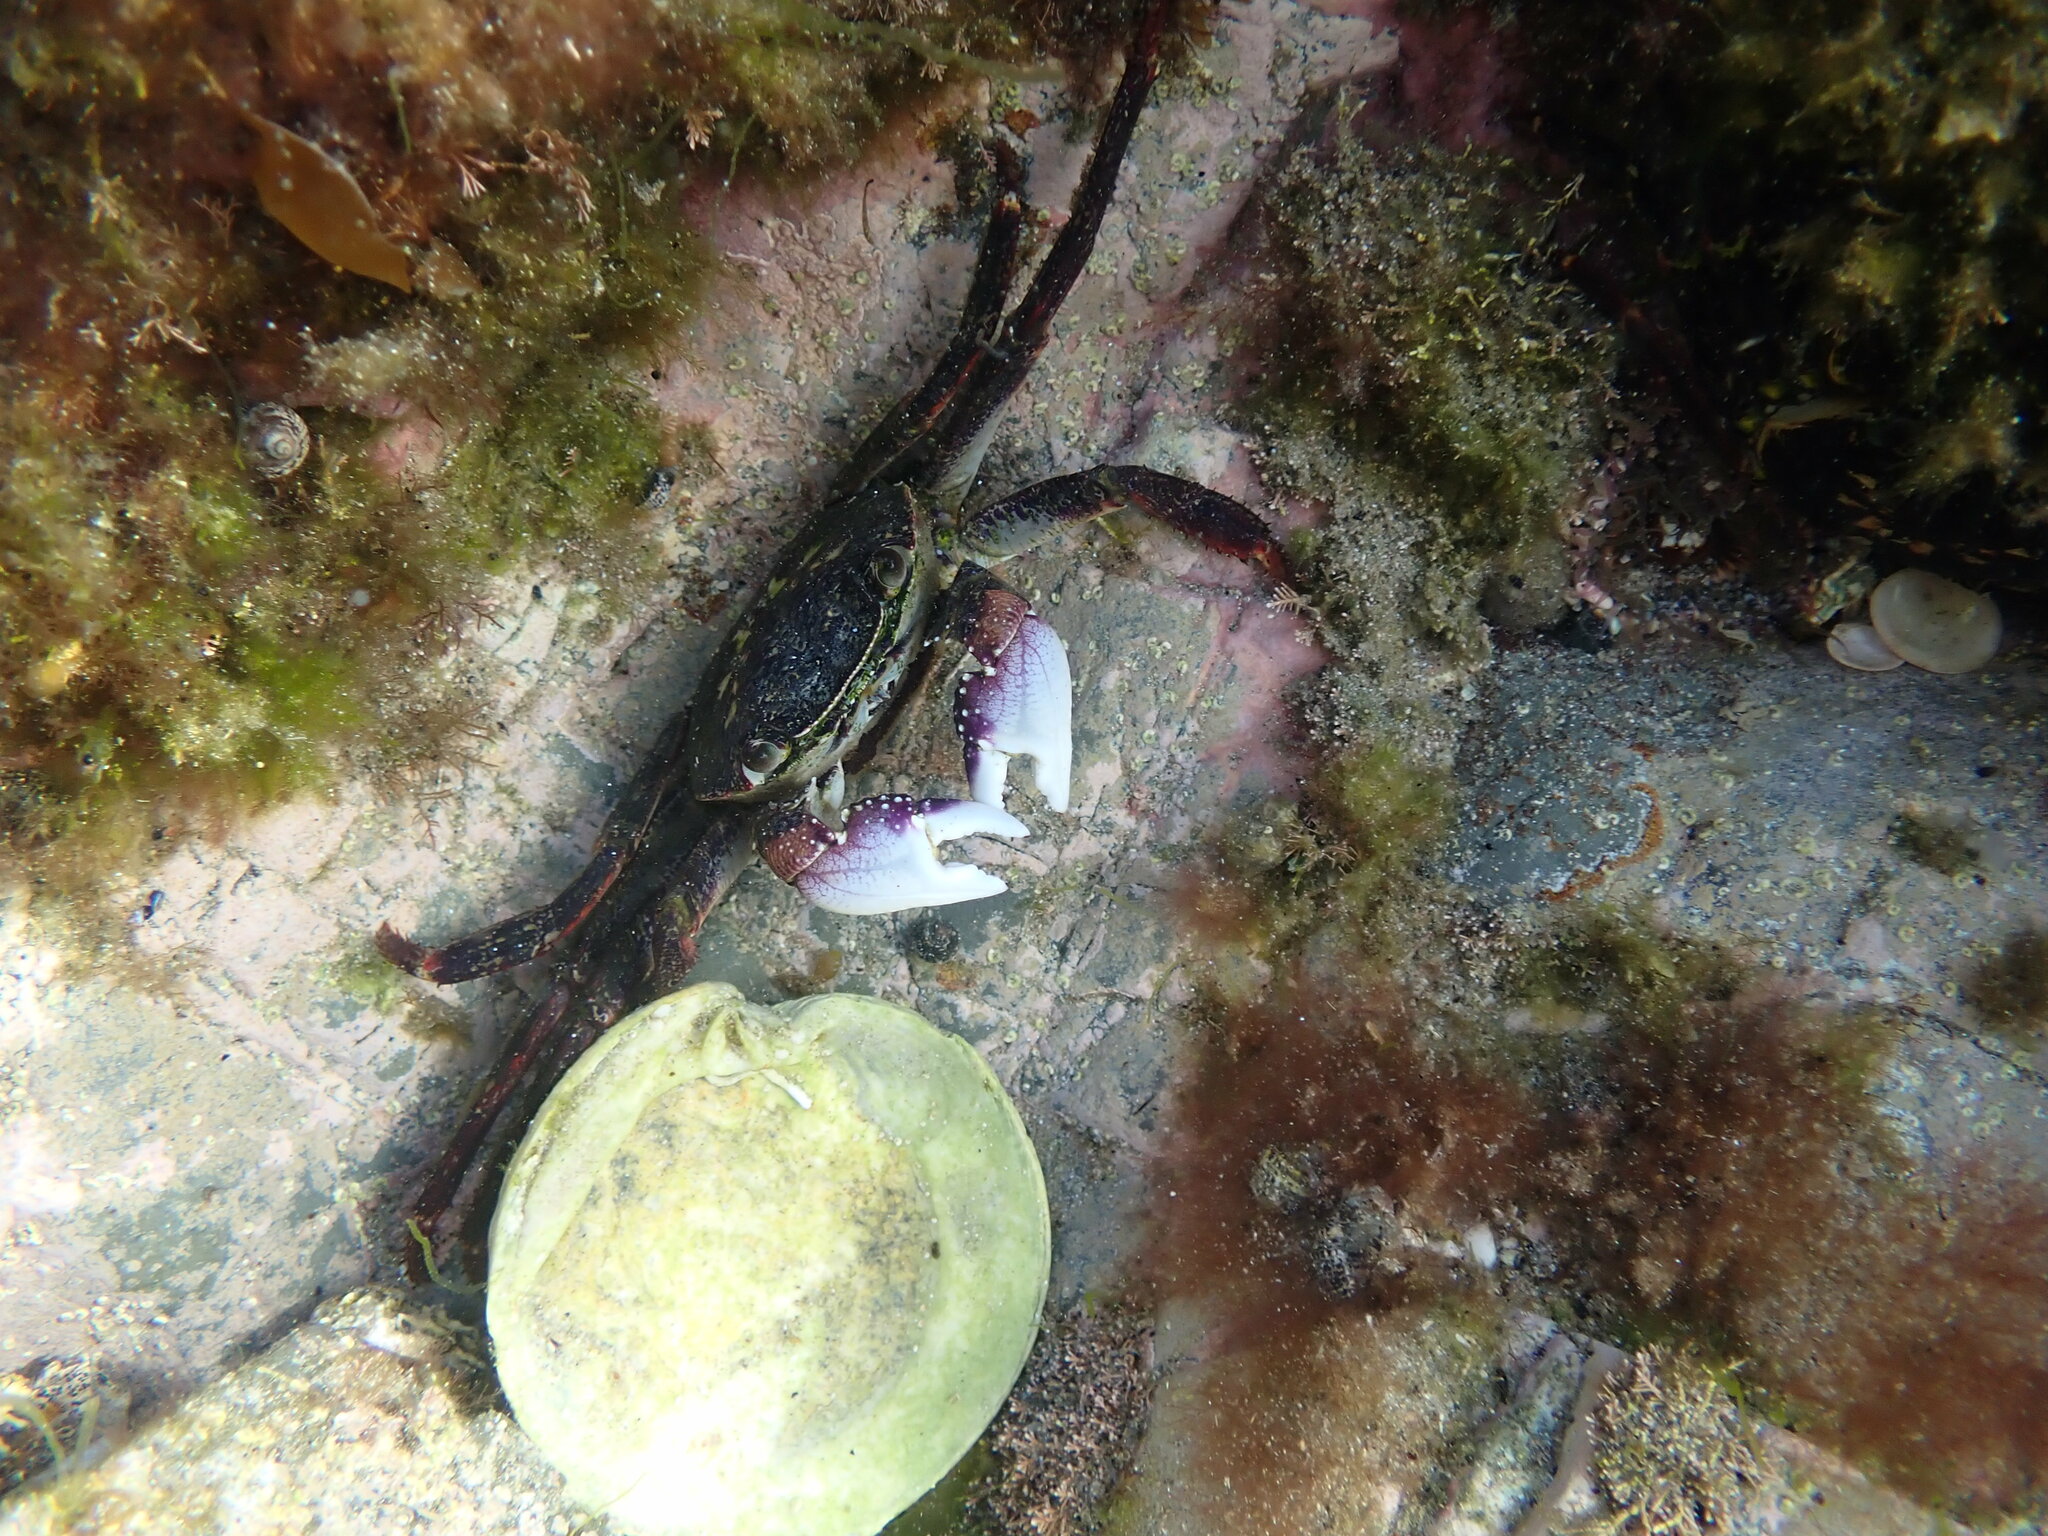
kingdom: Animalia
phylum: Arthropoda
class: Malacostraca
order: Decapoda
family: Grapsidae
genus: Leptograpsus
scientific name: Leptograpsus variegatus
